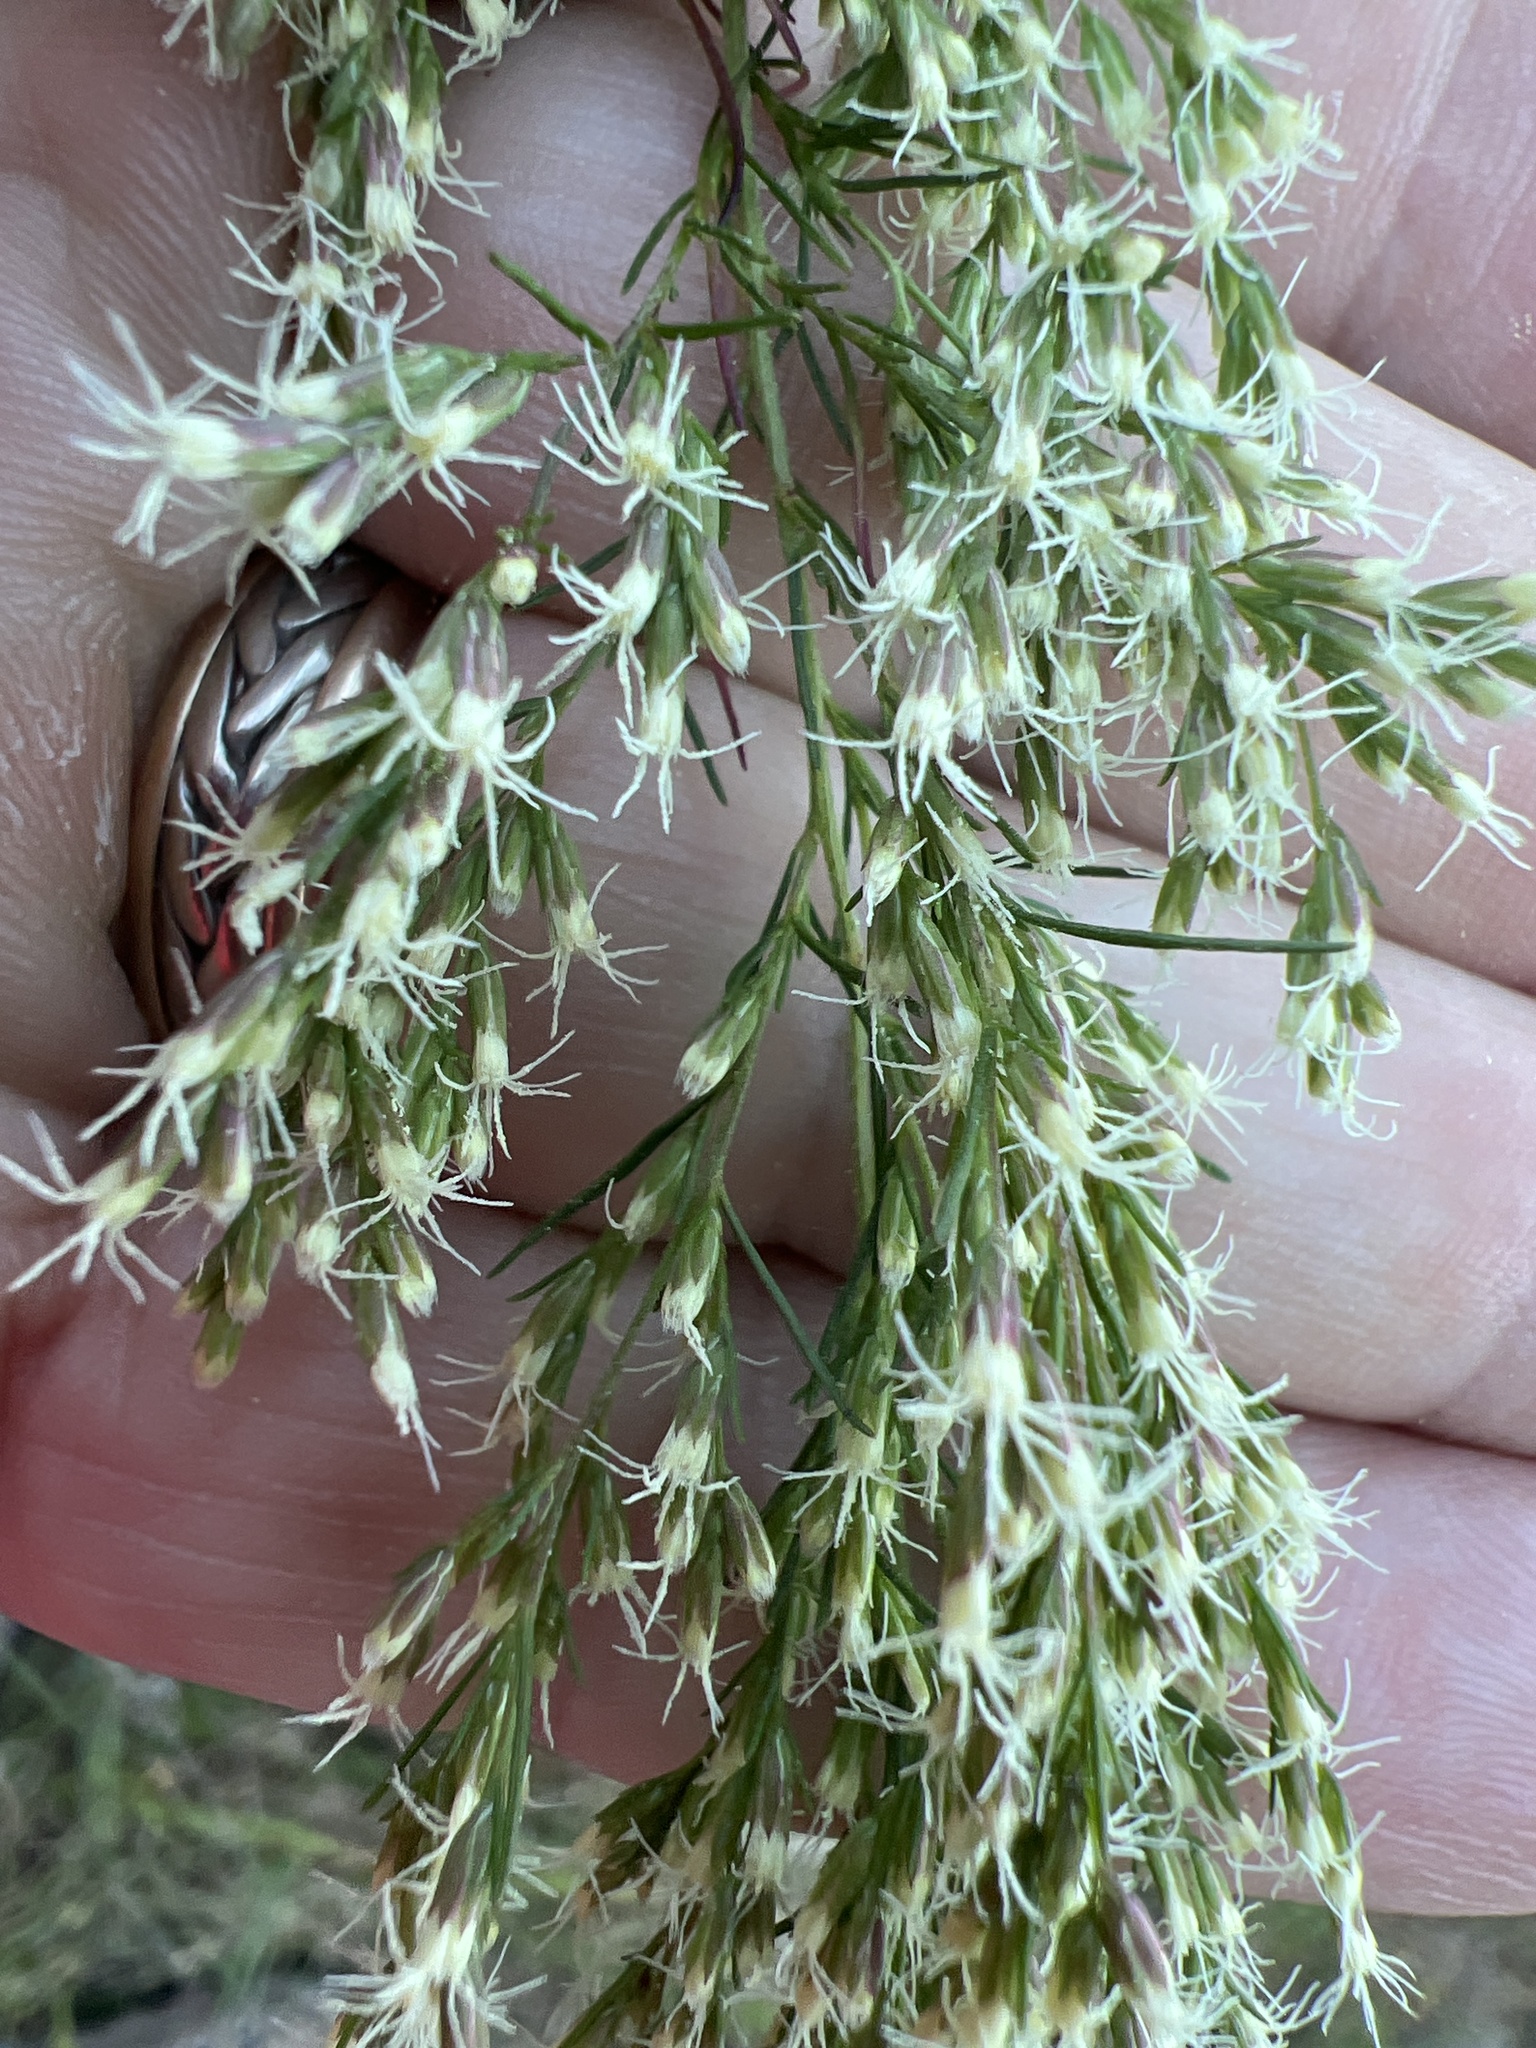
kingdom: Plantae
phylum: Tracheophyta
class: Magnoliopsida
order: Asterales
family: Asteraceae
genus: Eupatorium
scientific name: Eupatorium capillifolium
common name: Dog-fennel
